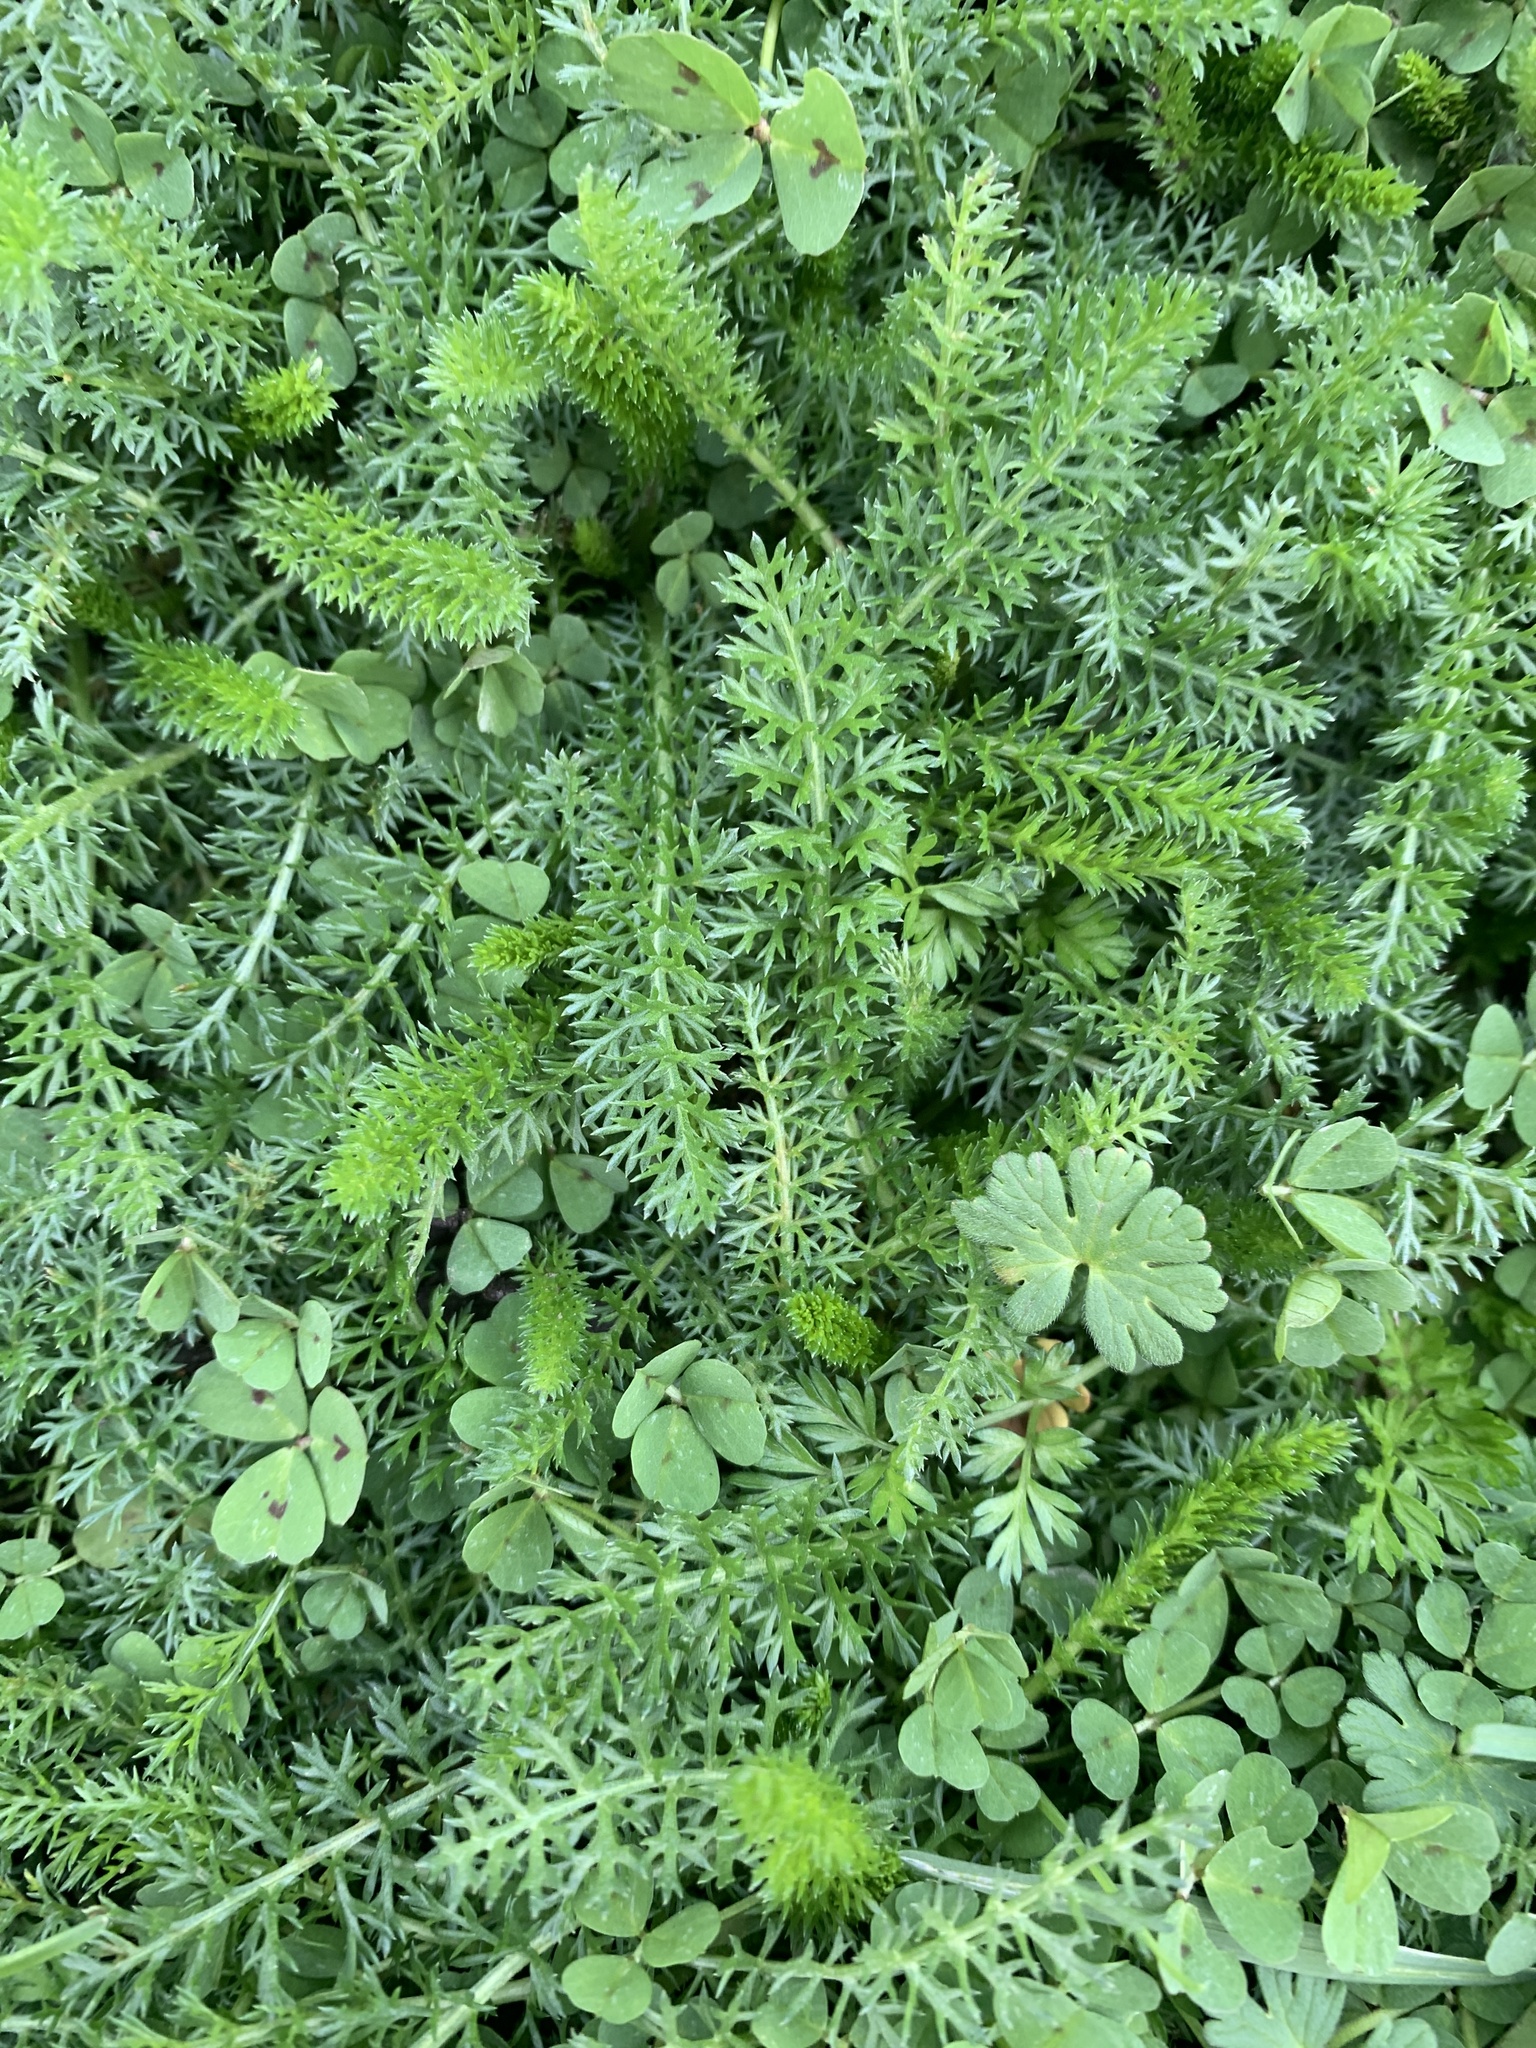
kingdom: Plantae
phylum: Tracheophyta
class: Magnoliopsida
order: Asterales
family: Asteraceae
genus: Achillea
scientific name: Achillea millefolium
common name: Yarrow
